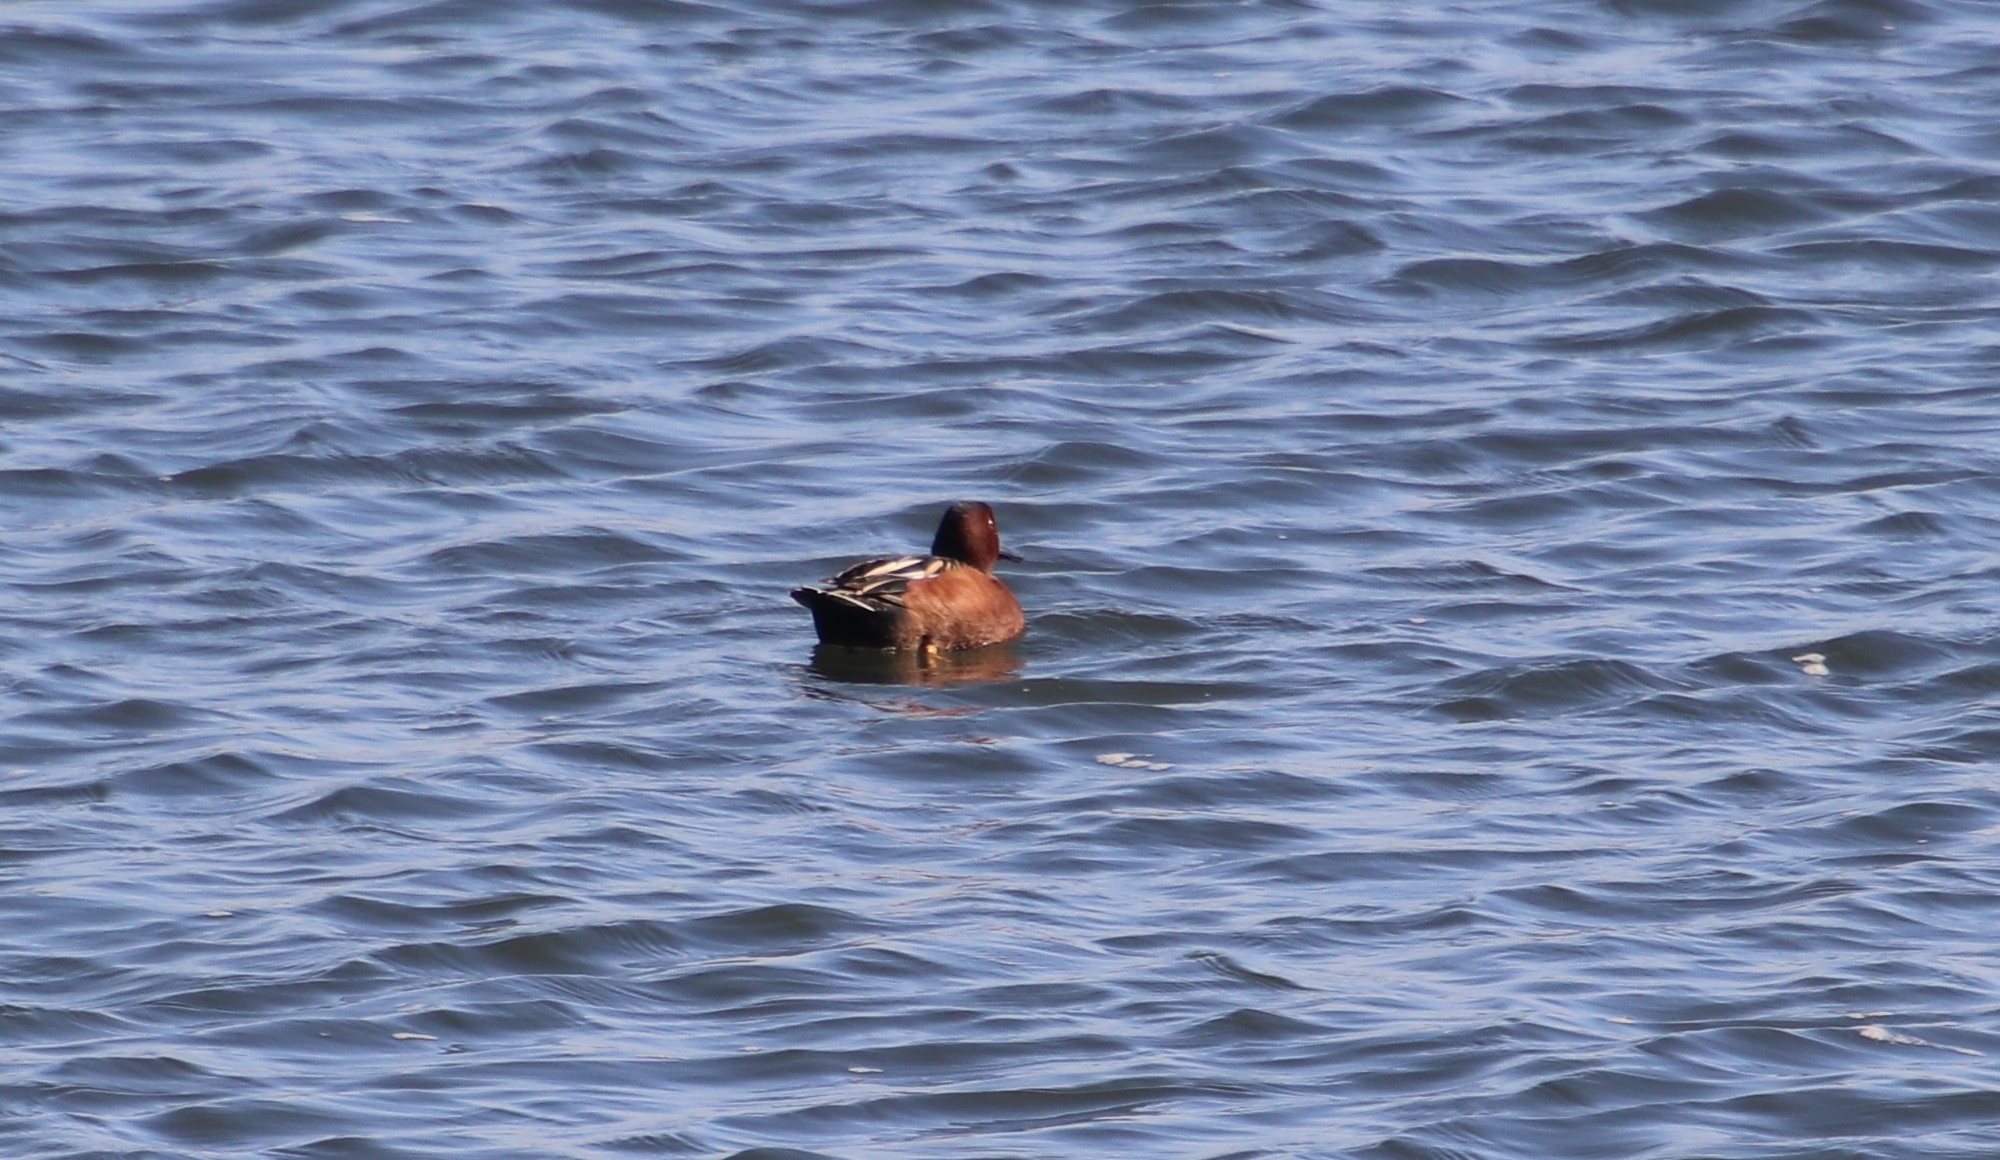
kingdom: Animalia
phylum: Chordata
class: Aves
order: Anseriformes
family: Anatidae
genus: Spatula
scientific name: Spatula cyanoptera
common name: Cinnamon teal
